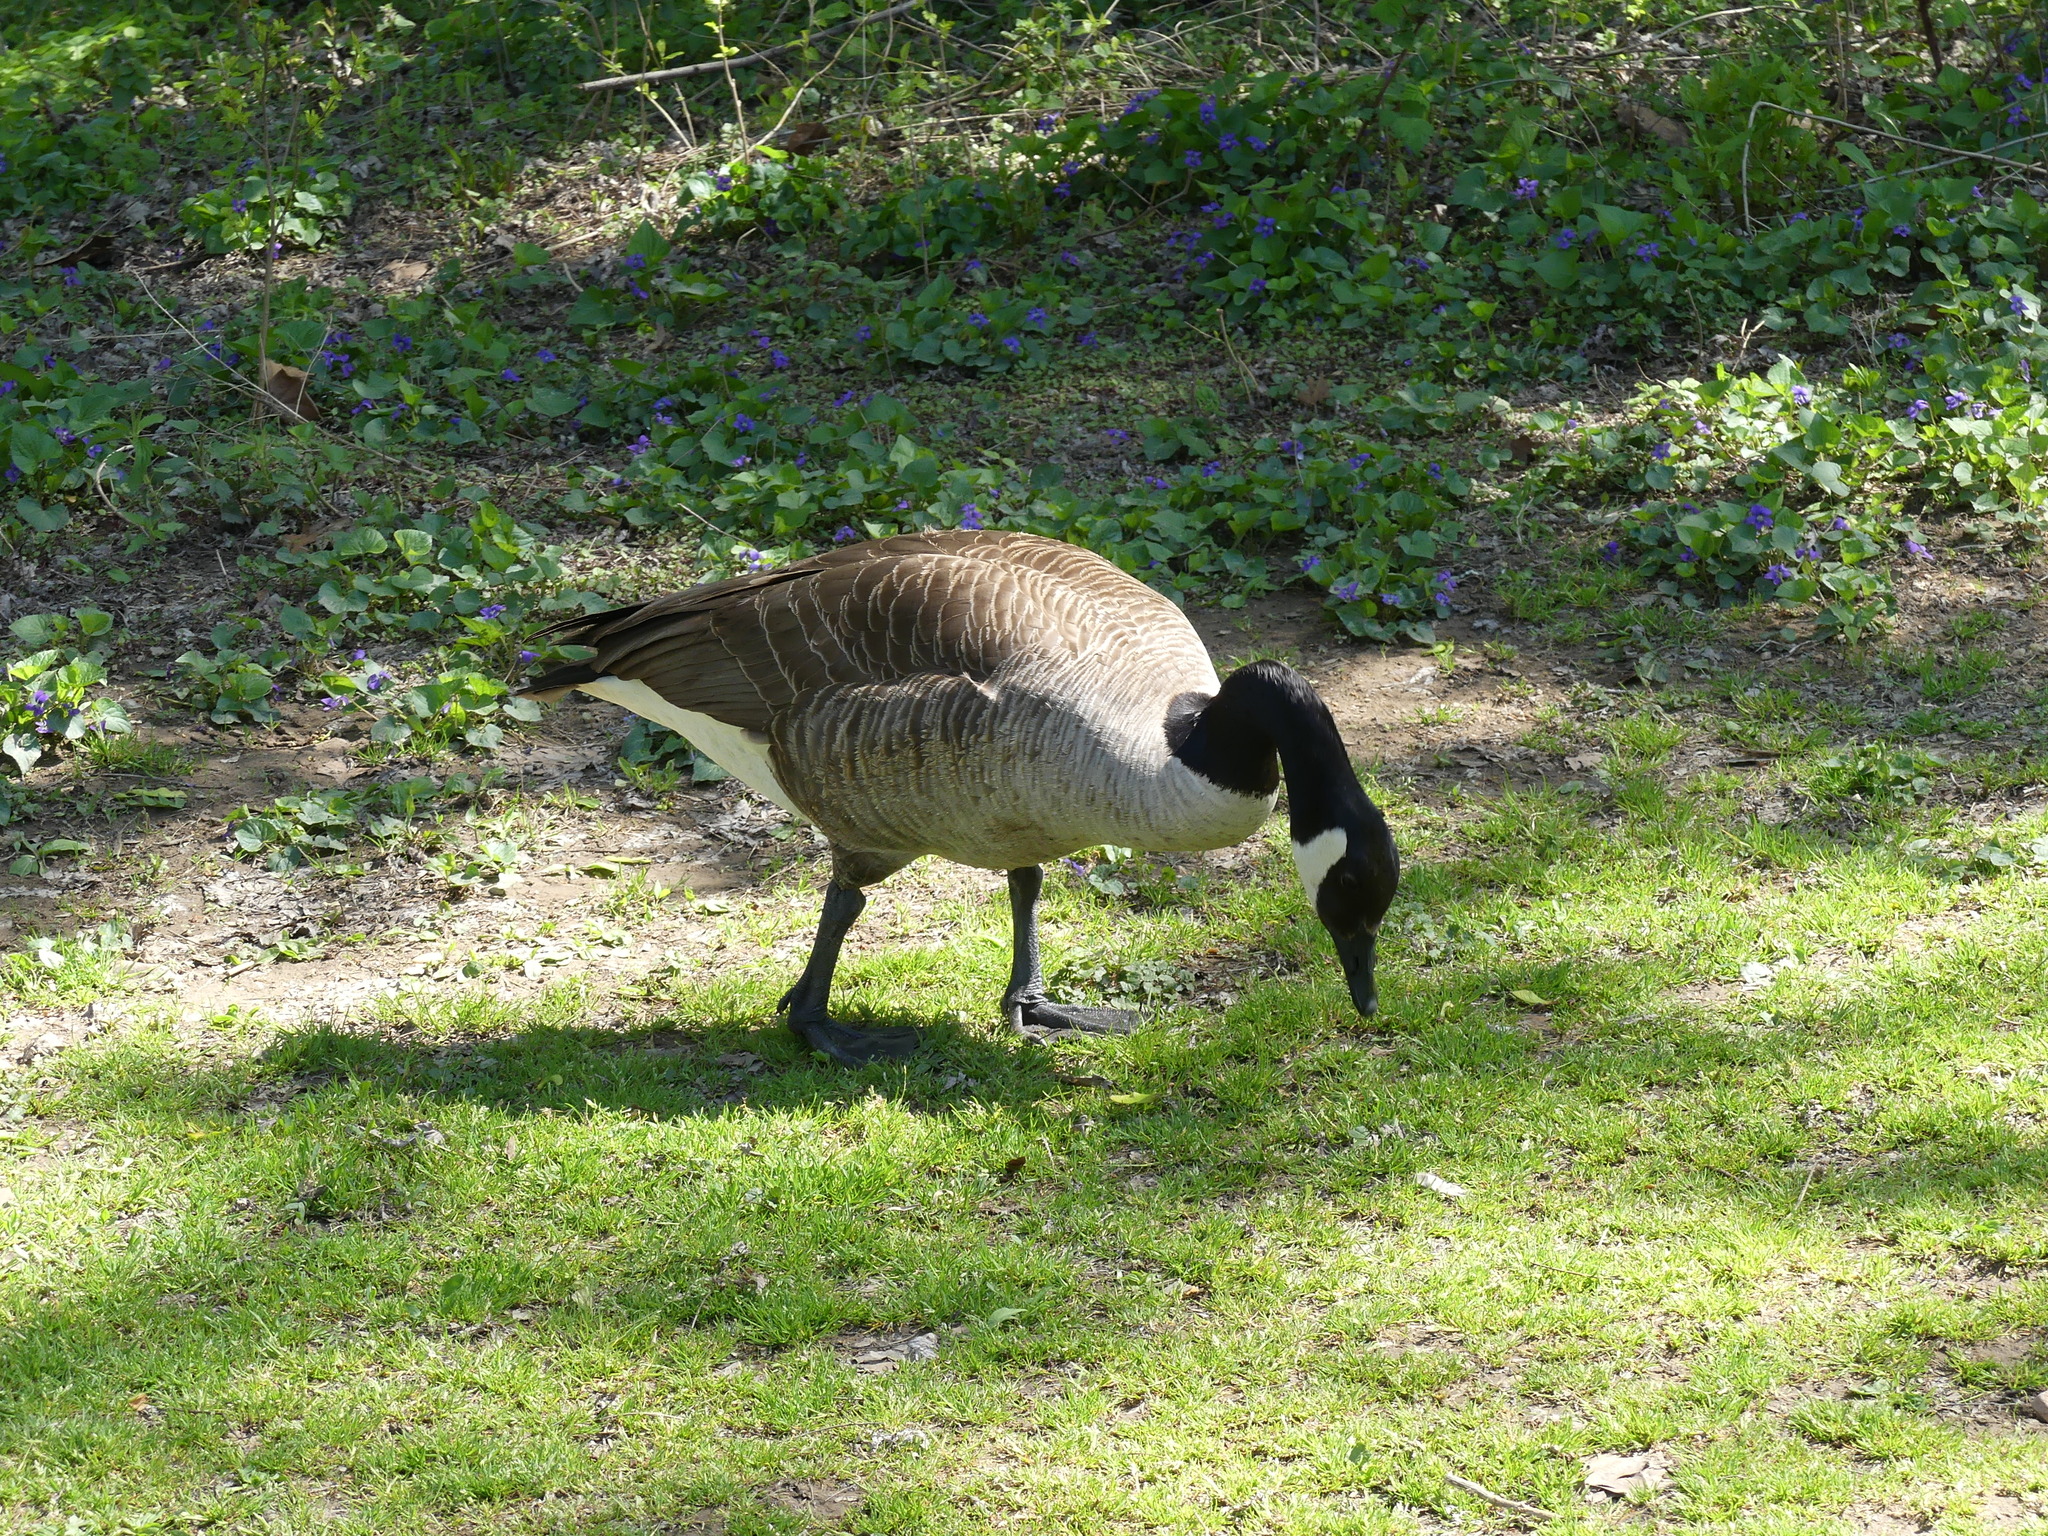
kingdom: Animalia
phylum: Chordata
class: Aves
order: Anseriformes
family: Anatidae
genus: Branta
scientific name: Branta canadensis
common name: Canada goose
